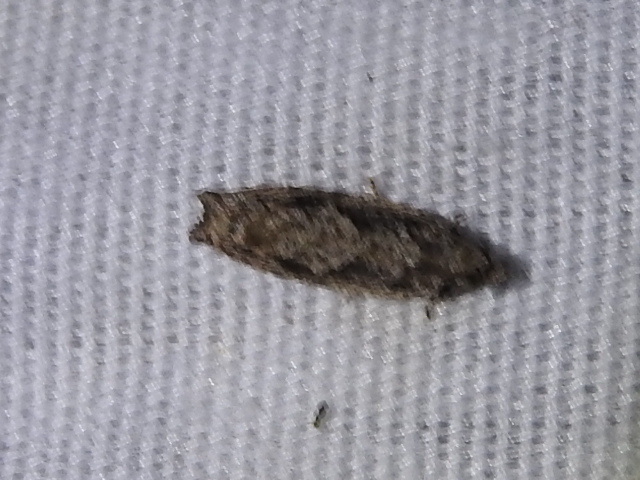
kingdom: Animalia
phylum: Arthropoda
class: Insecta
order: Lepidoptera
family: Tortricidae
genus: Gretchena
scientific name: Gretchena bolliana
